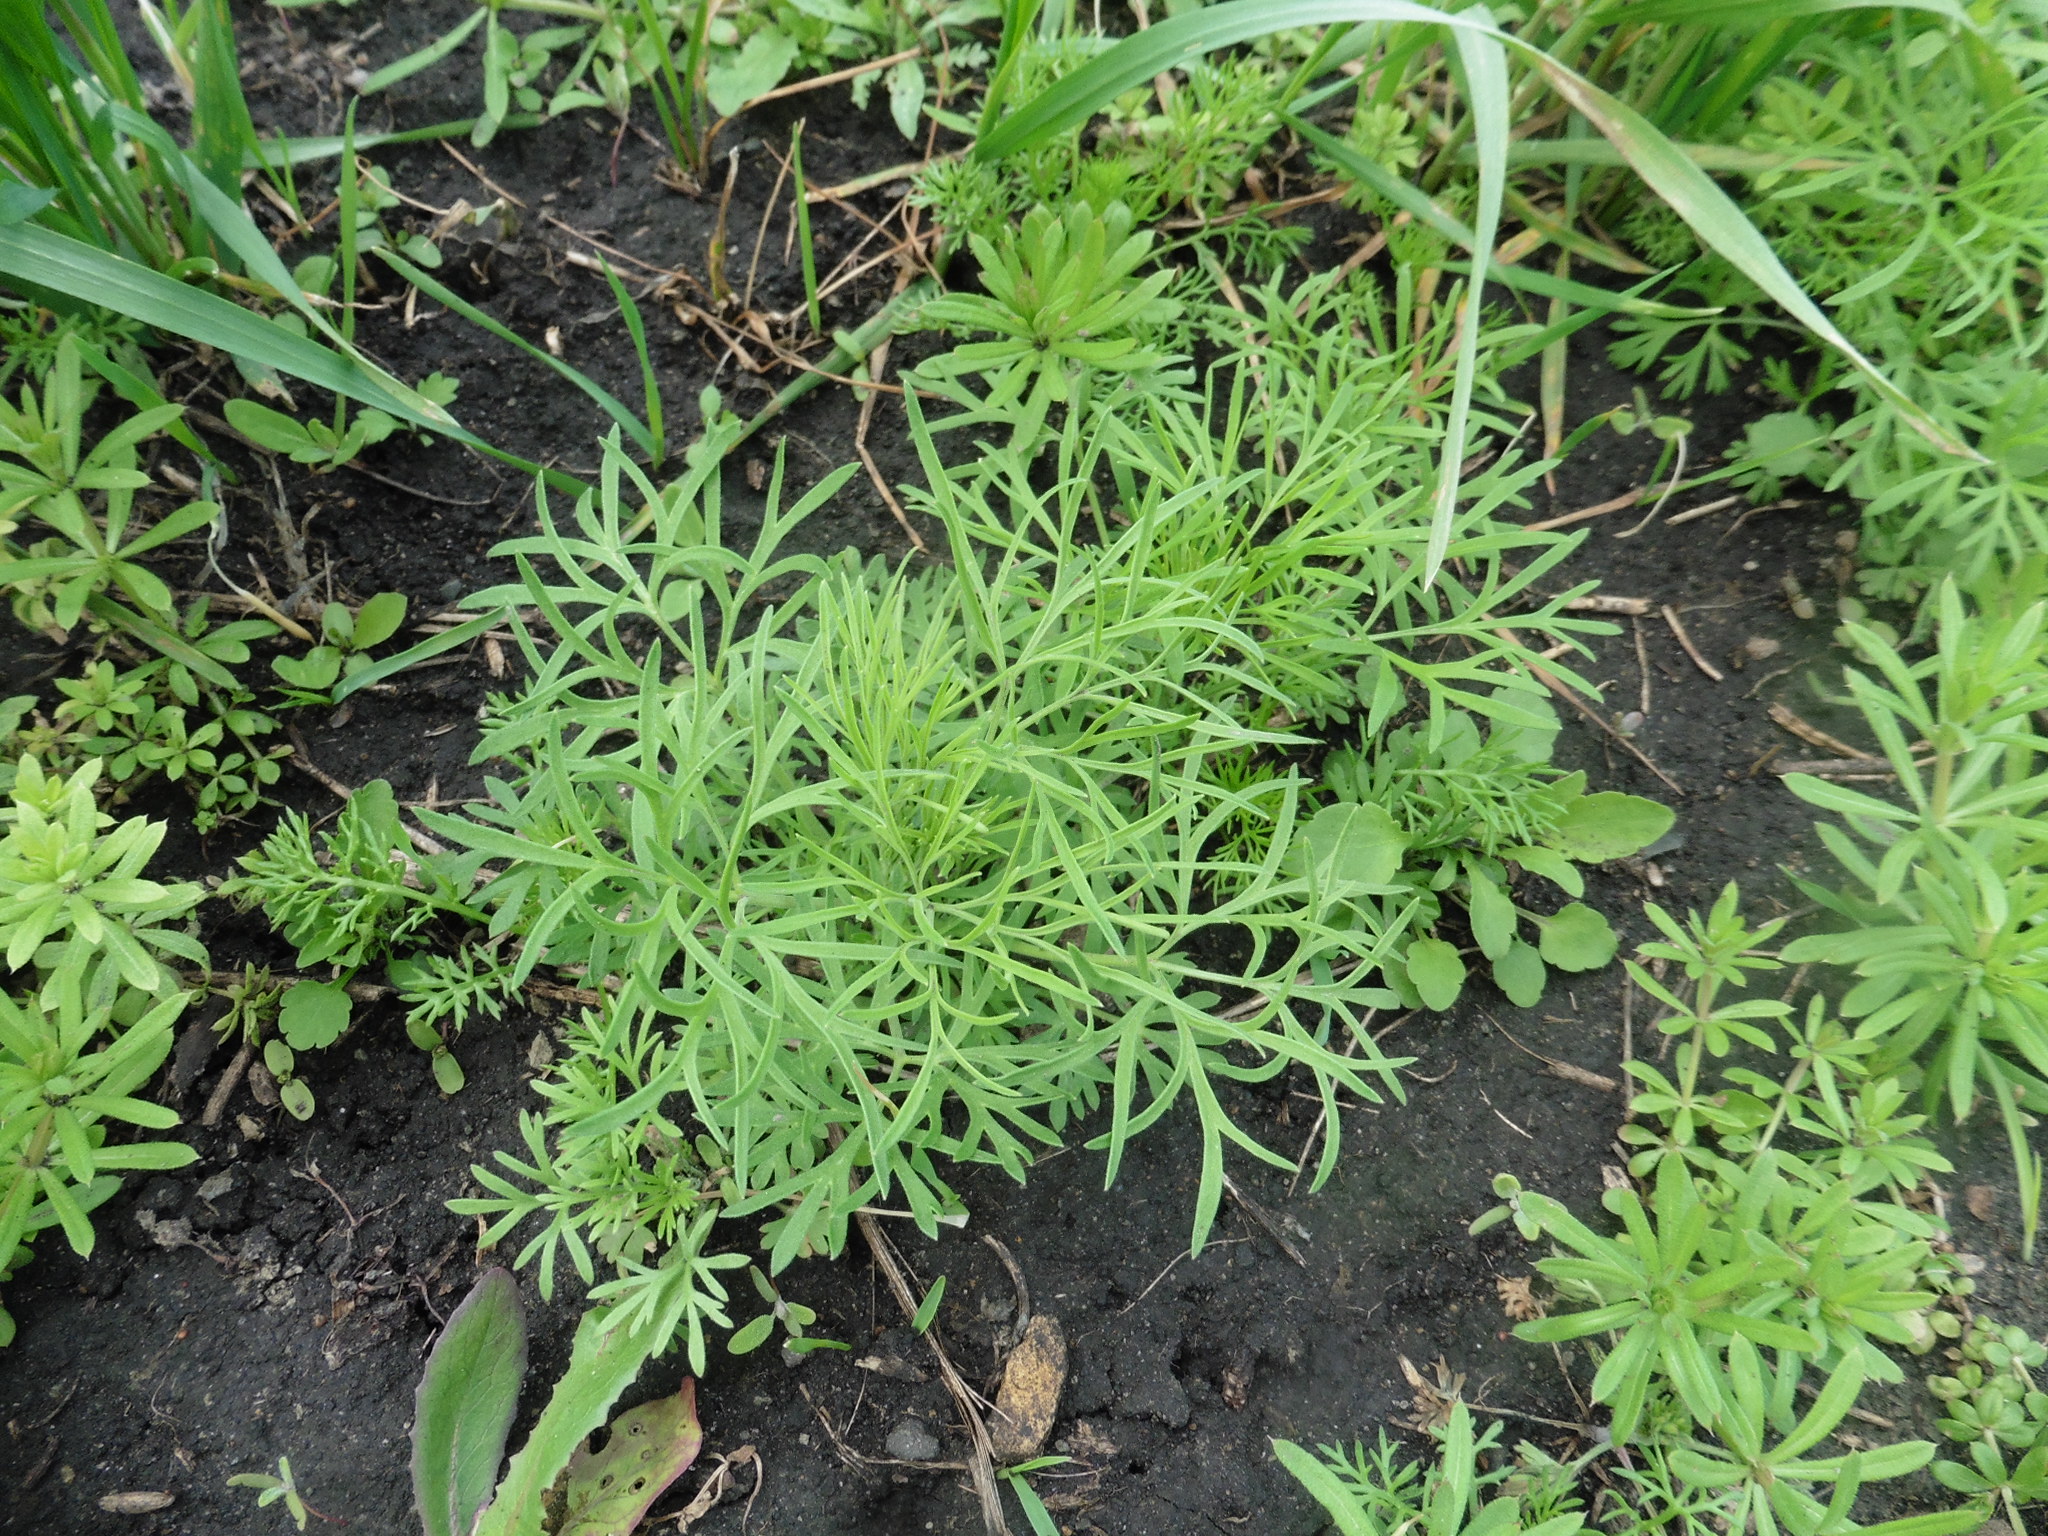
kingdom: Plantae
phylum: Tracheophyta
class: Magnoliopsida
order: Ranunculales
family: Ranunculaceae
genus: Delphinium
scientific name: Delphinium consolida
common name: Branching larkspur
